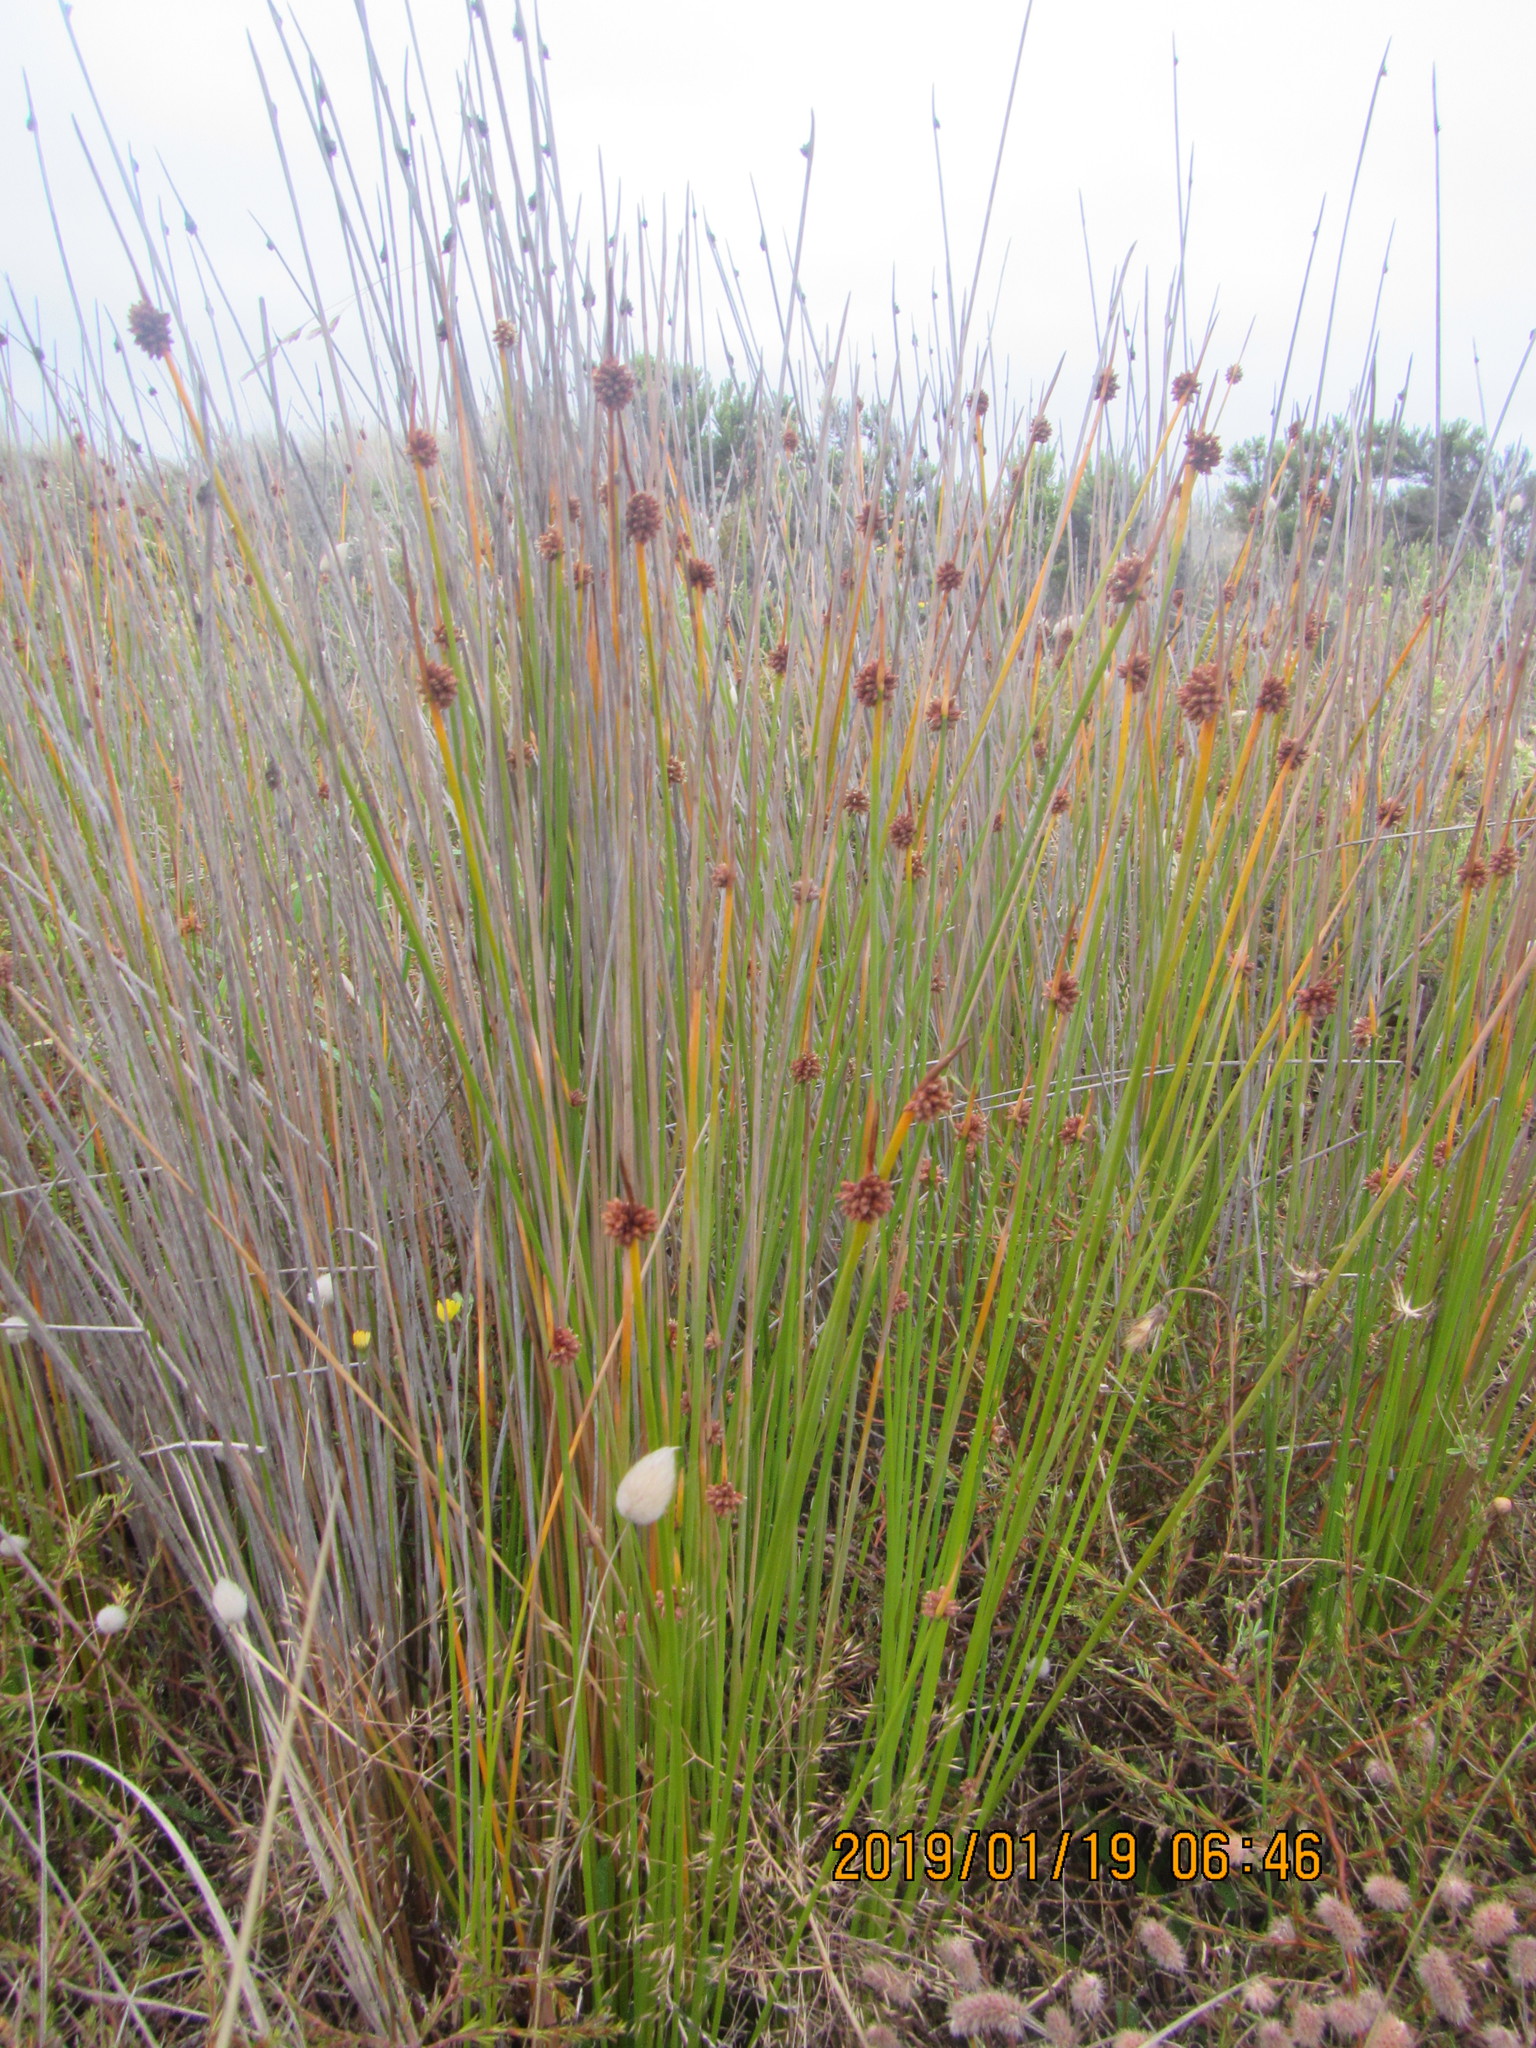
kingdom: Plantae
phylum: Tracheophyta
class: Liliopsida
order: Poales
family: Cyperaceae
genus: Ficinia
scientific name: Ficinia nodosa
